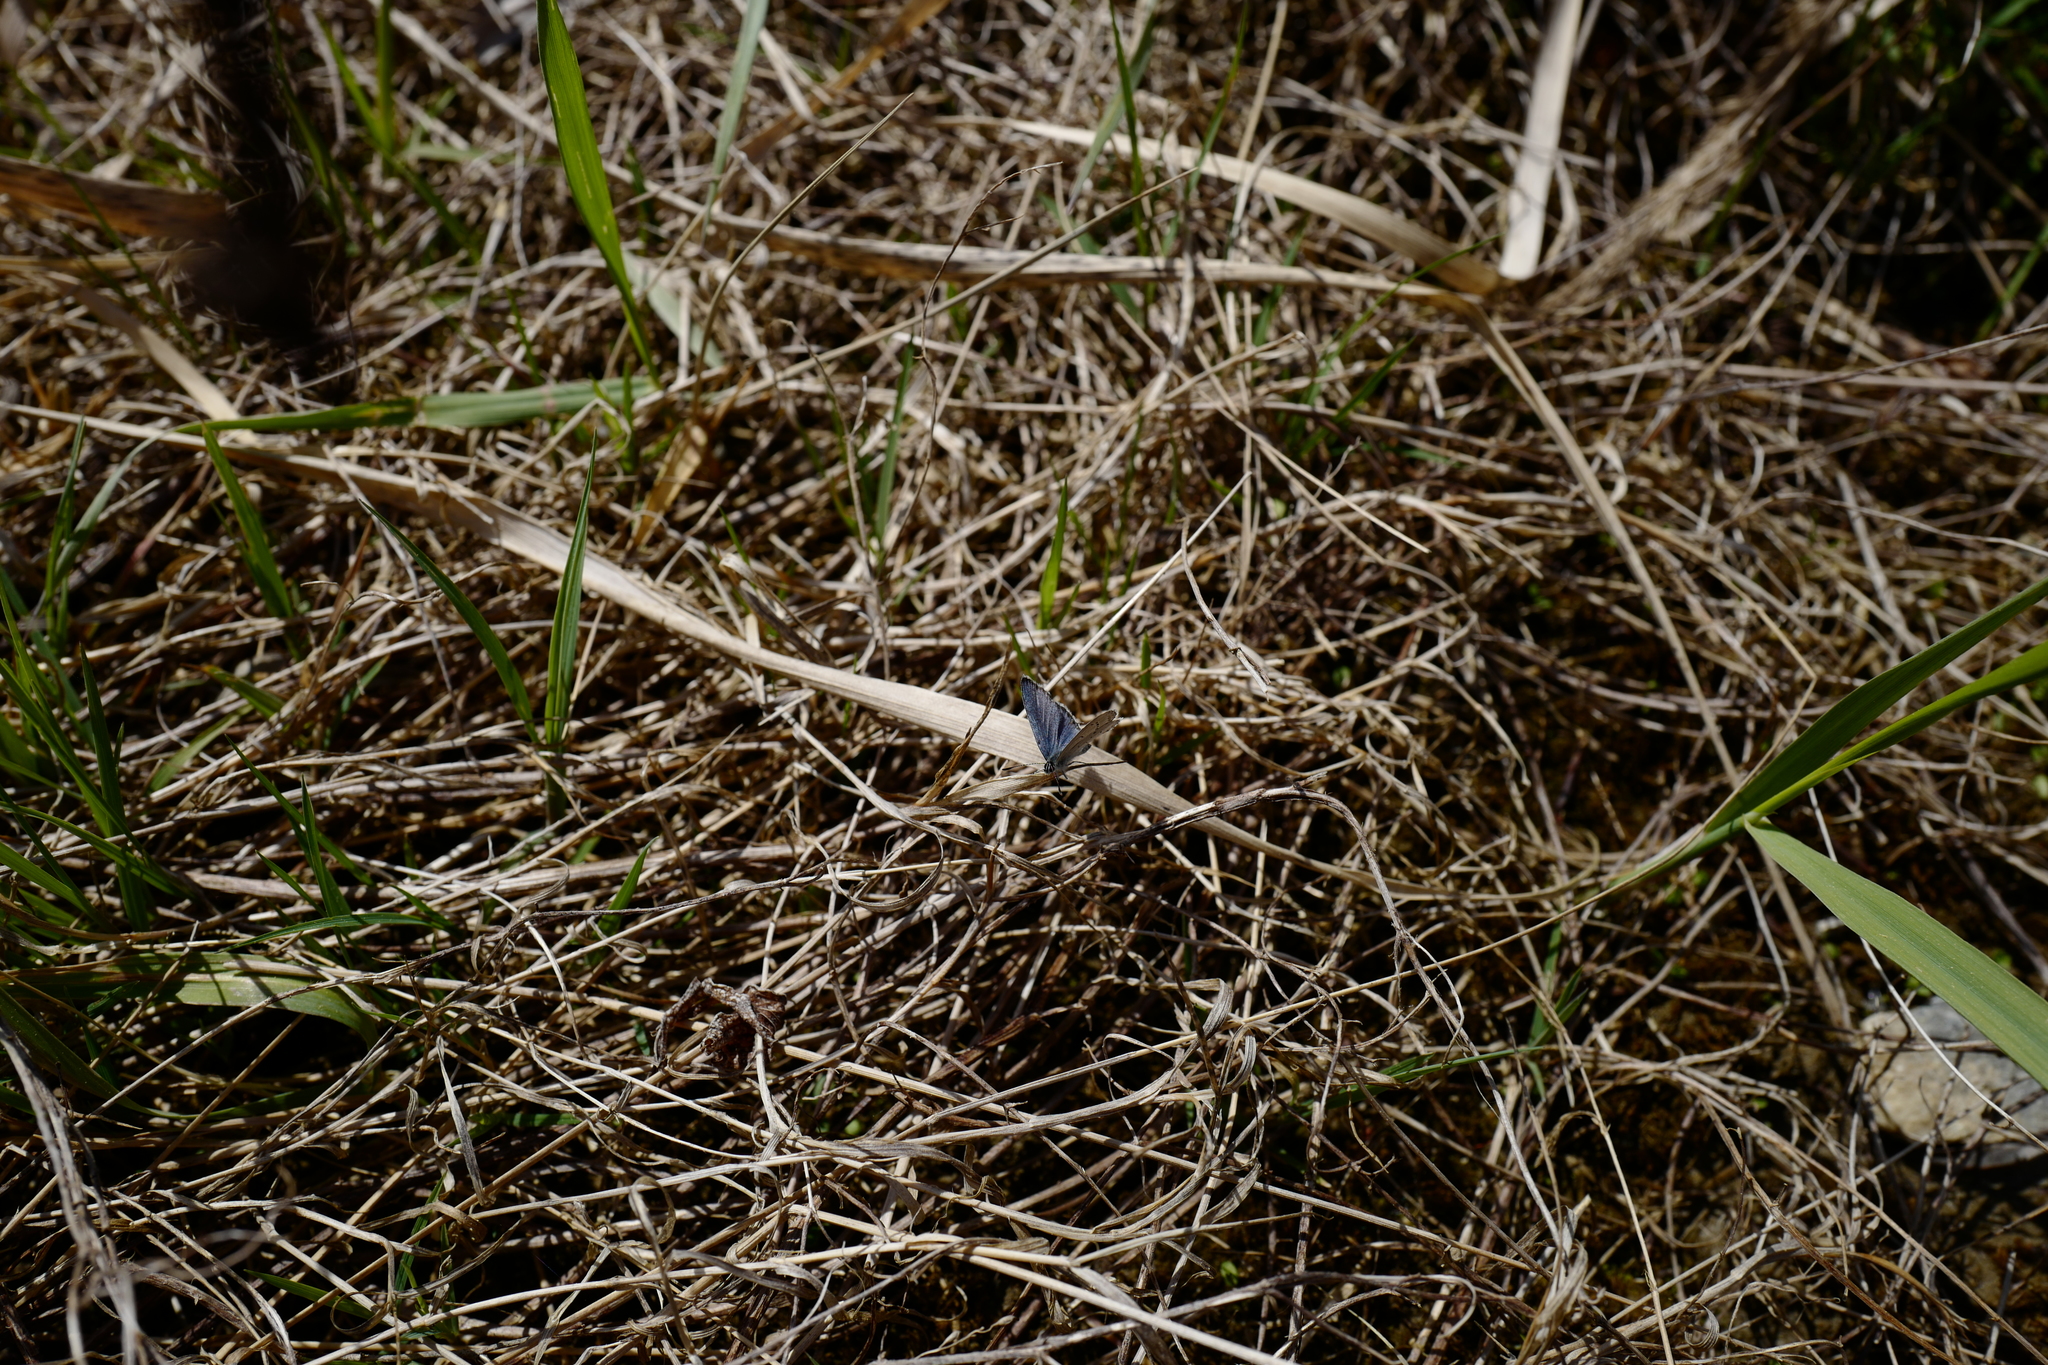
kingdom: Animalia
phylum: Arthropoda
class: Insecta
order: Lepidoptera
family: Lycaenidae
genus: Elkalyce
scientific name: Elkalyce argiades
